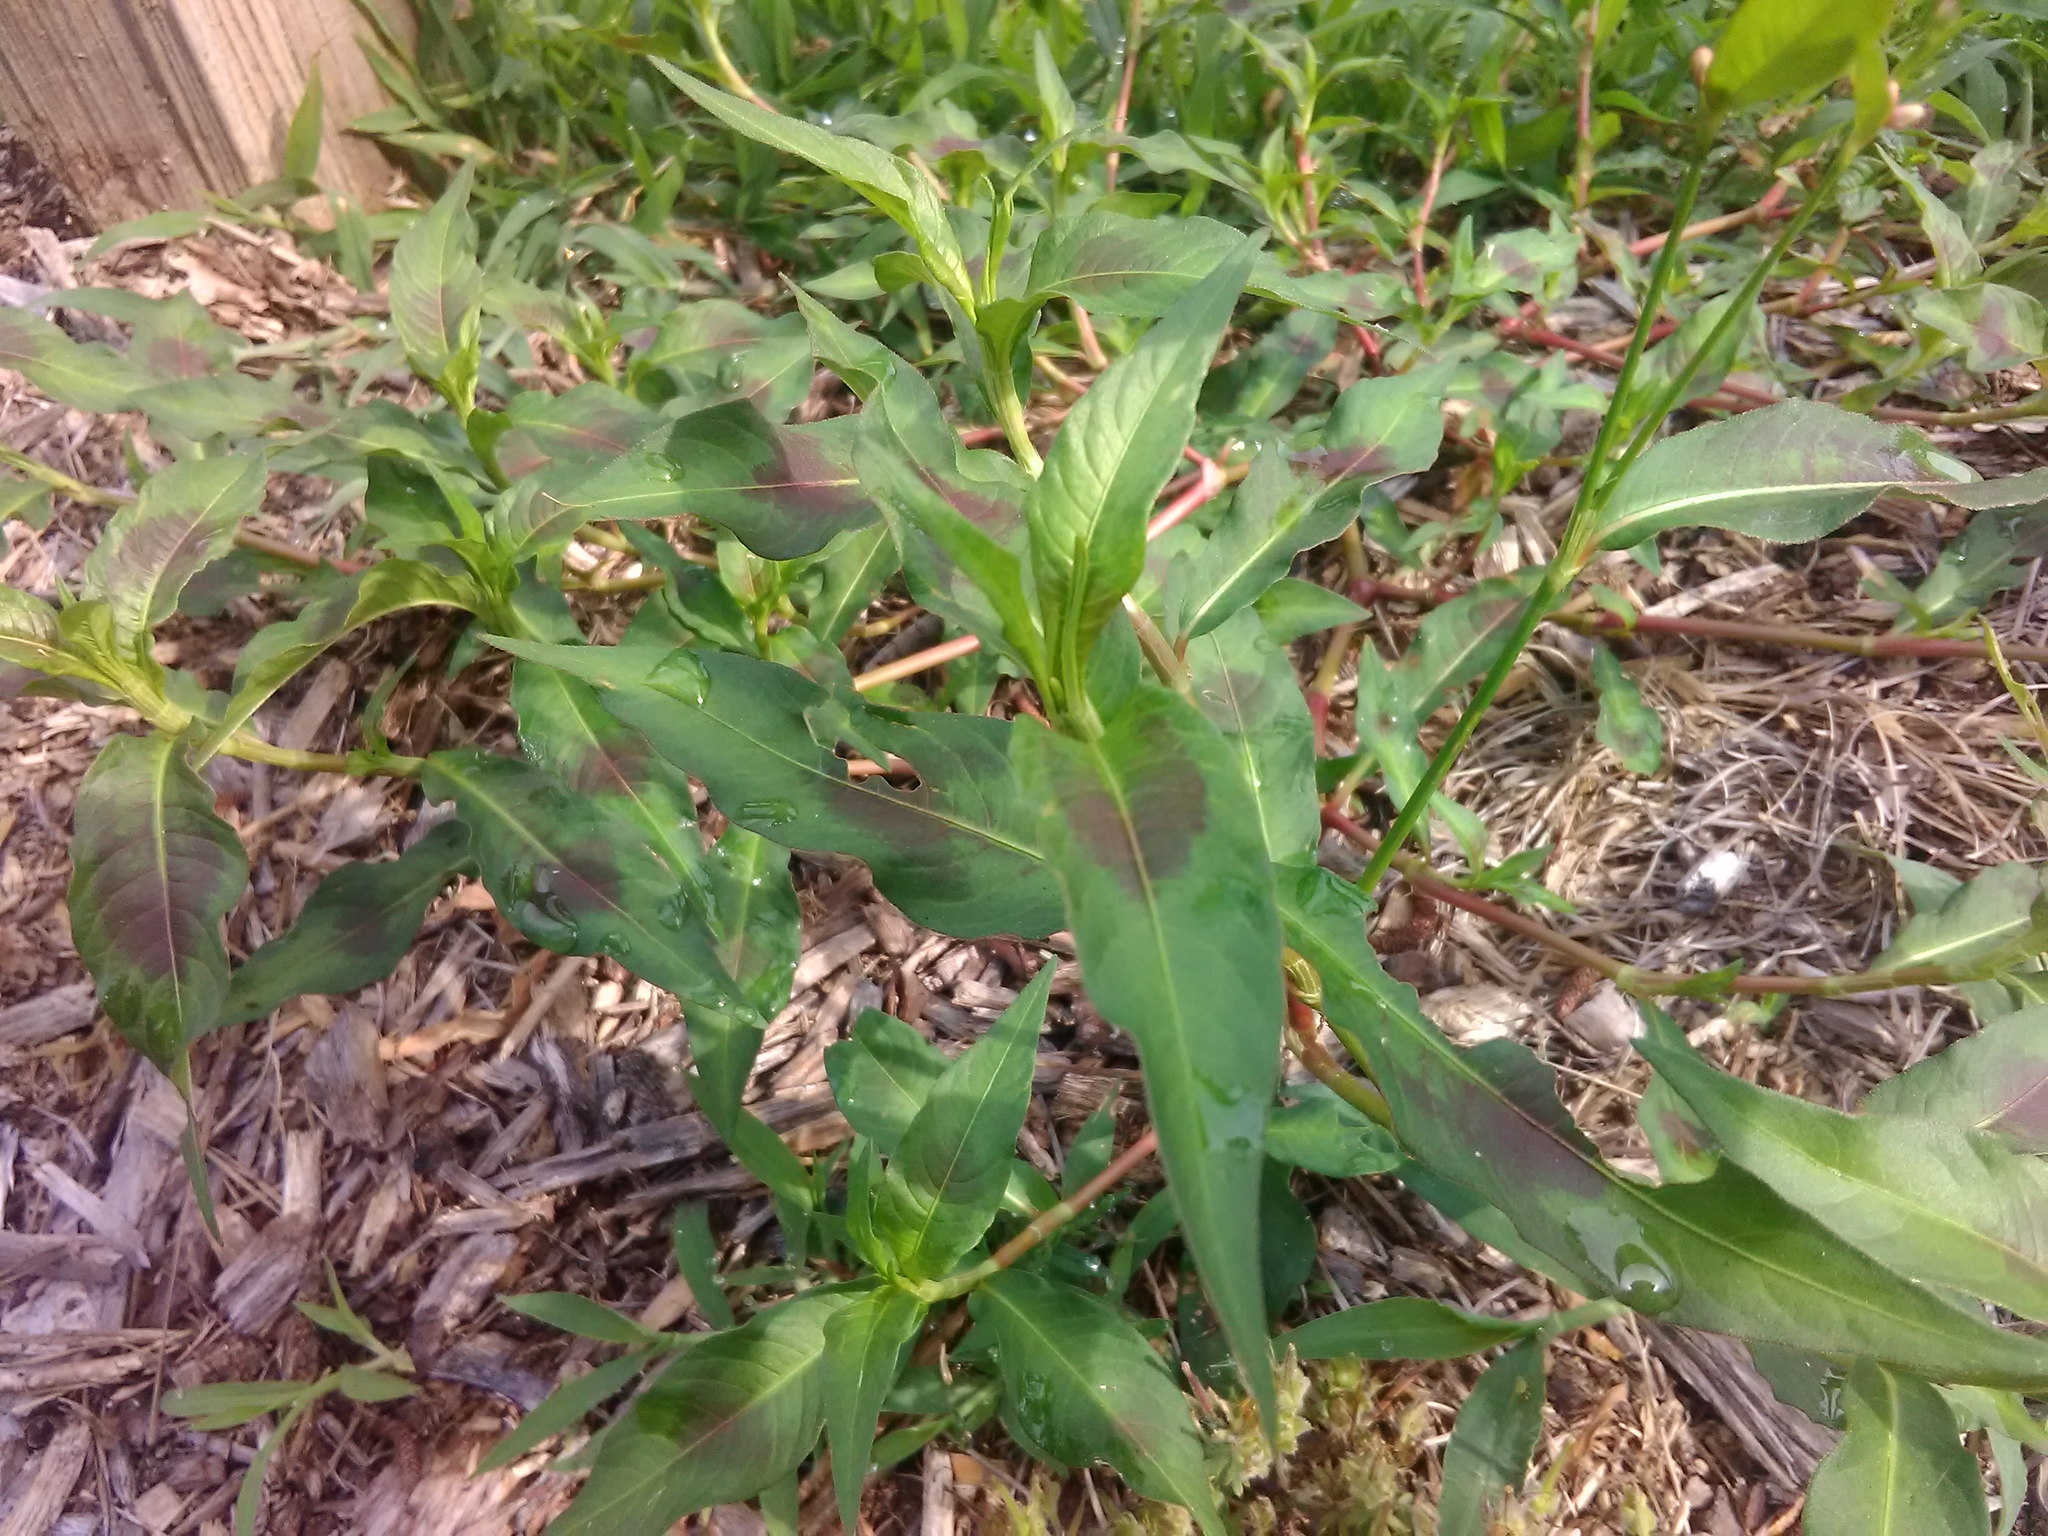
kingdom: Plantae
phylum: Tracheophyta
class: Magnoliopsida
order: Caryophyllales
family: Polygonaceae
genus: Persicaria
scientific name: Persicaria maculosa
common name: Redshank
